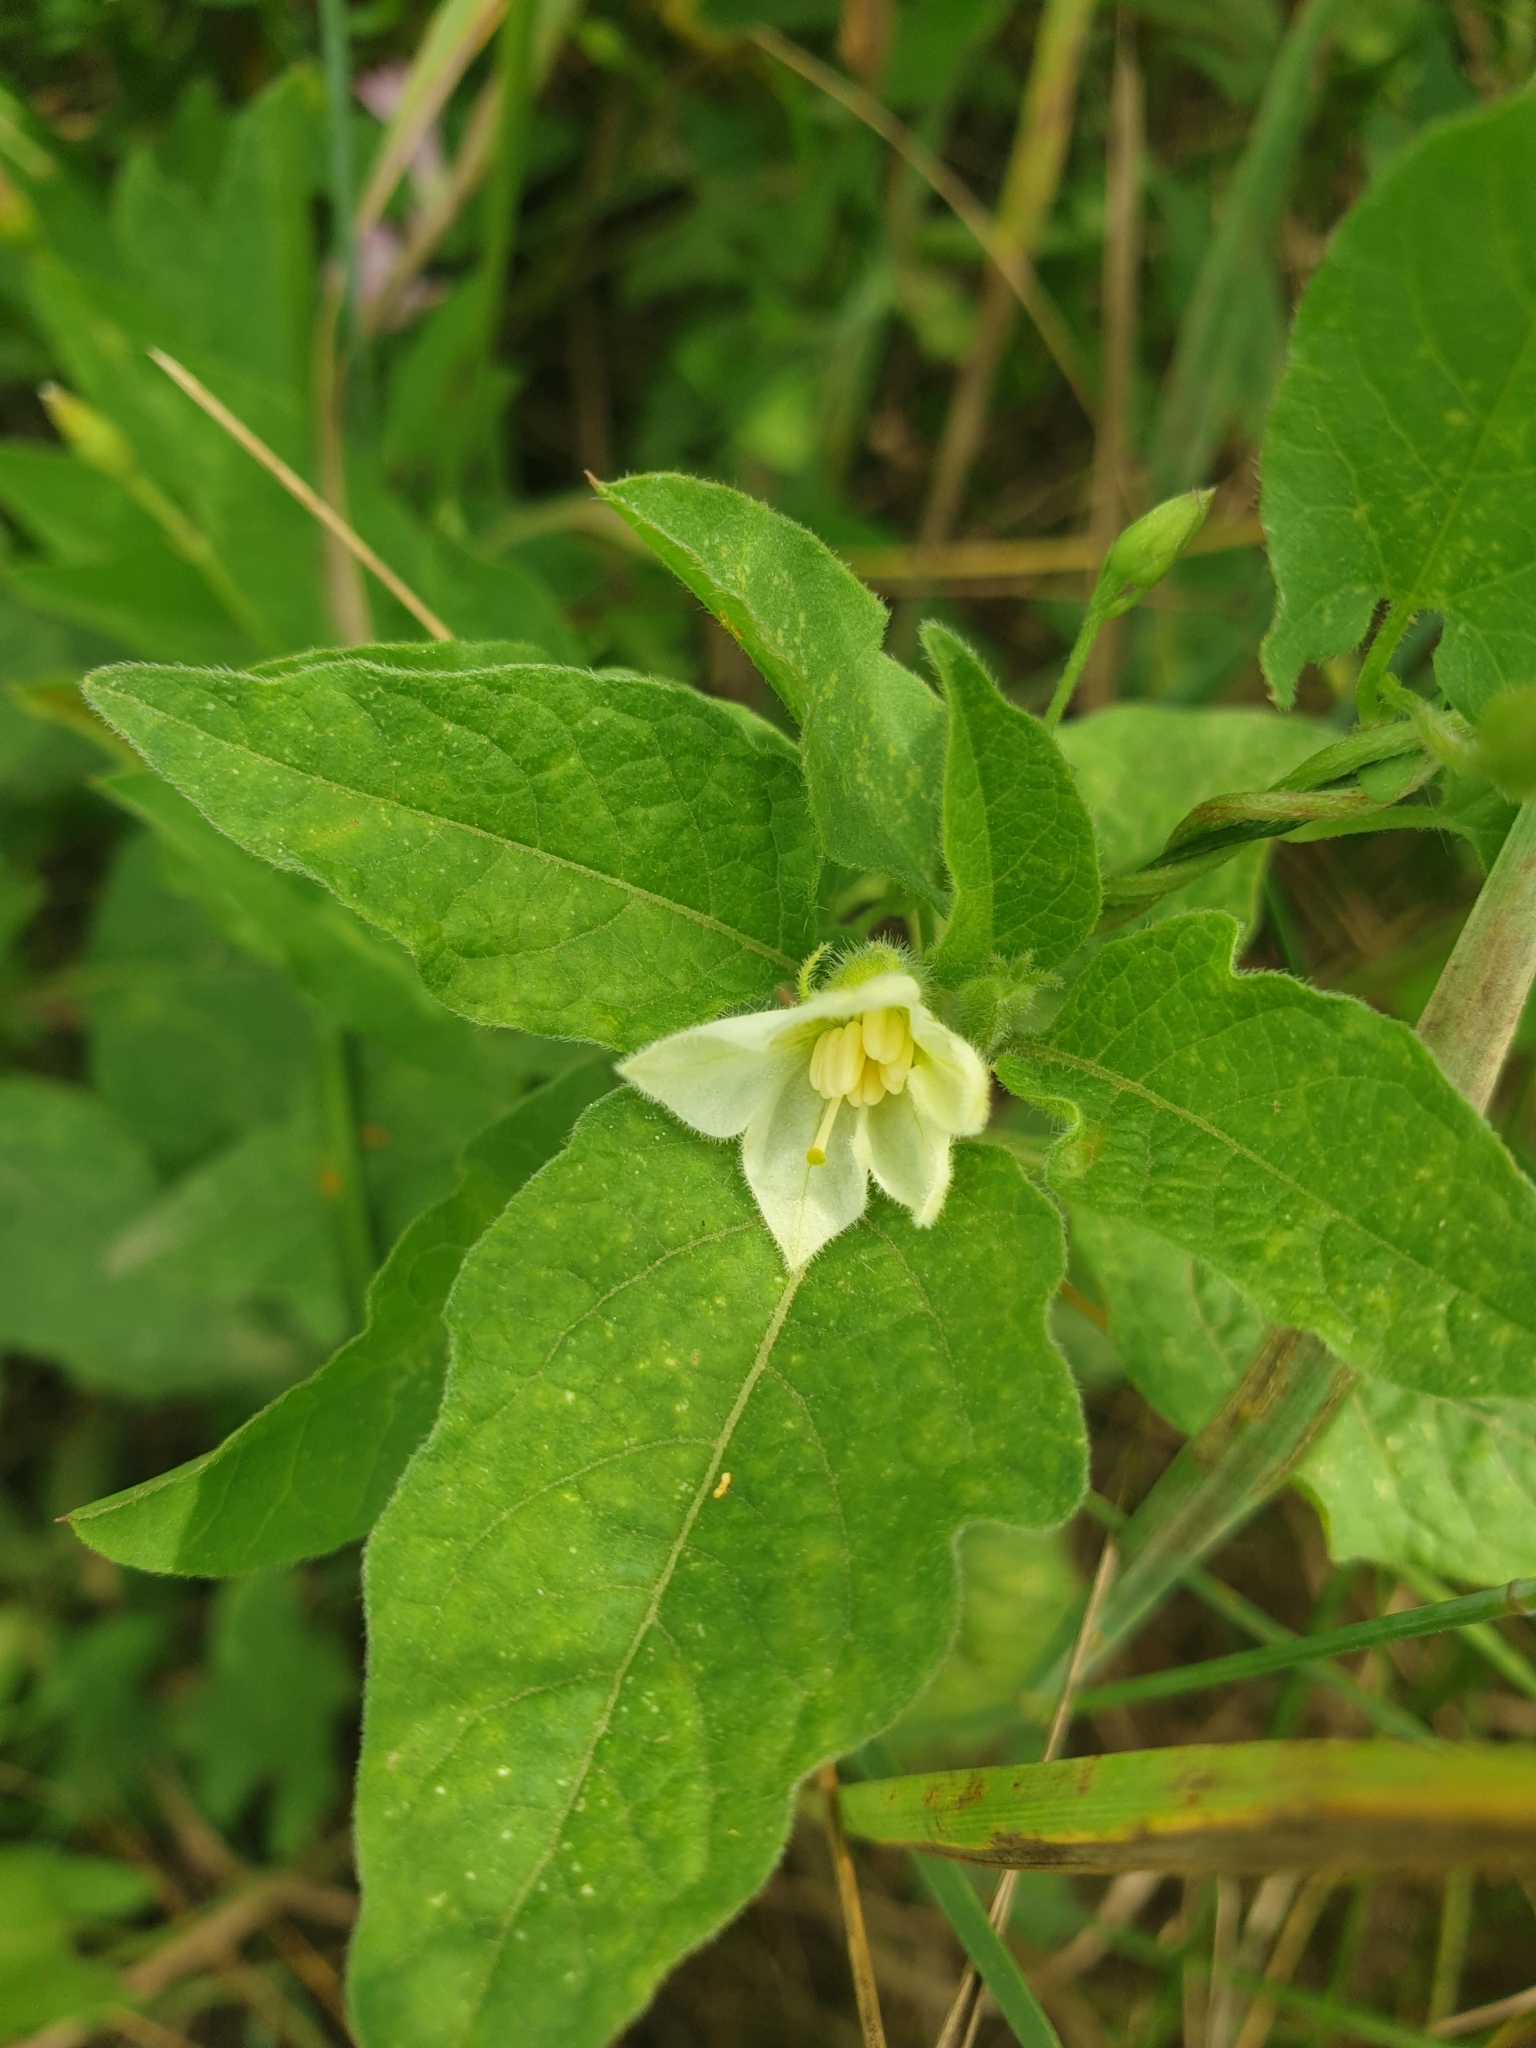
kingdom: Plantae
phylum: Tracheophyta
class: Magnoliopsida
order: Solanales
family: Solanaceae
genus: Alkekengi
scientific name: Alkekengi officinarum
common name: Japanese-lantern
